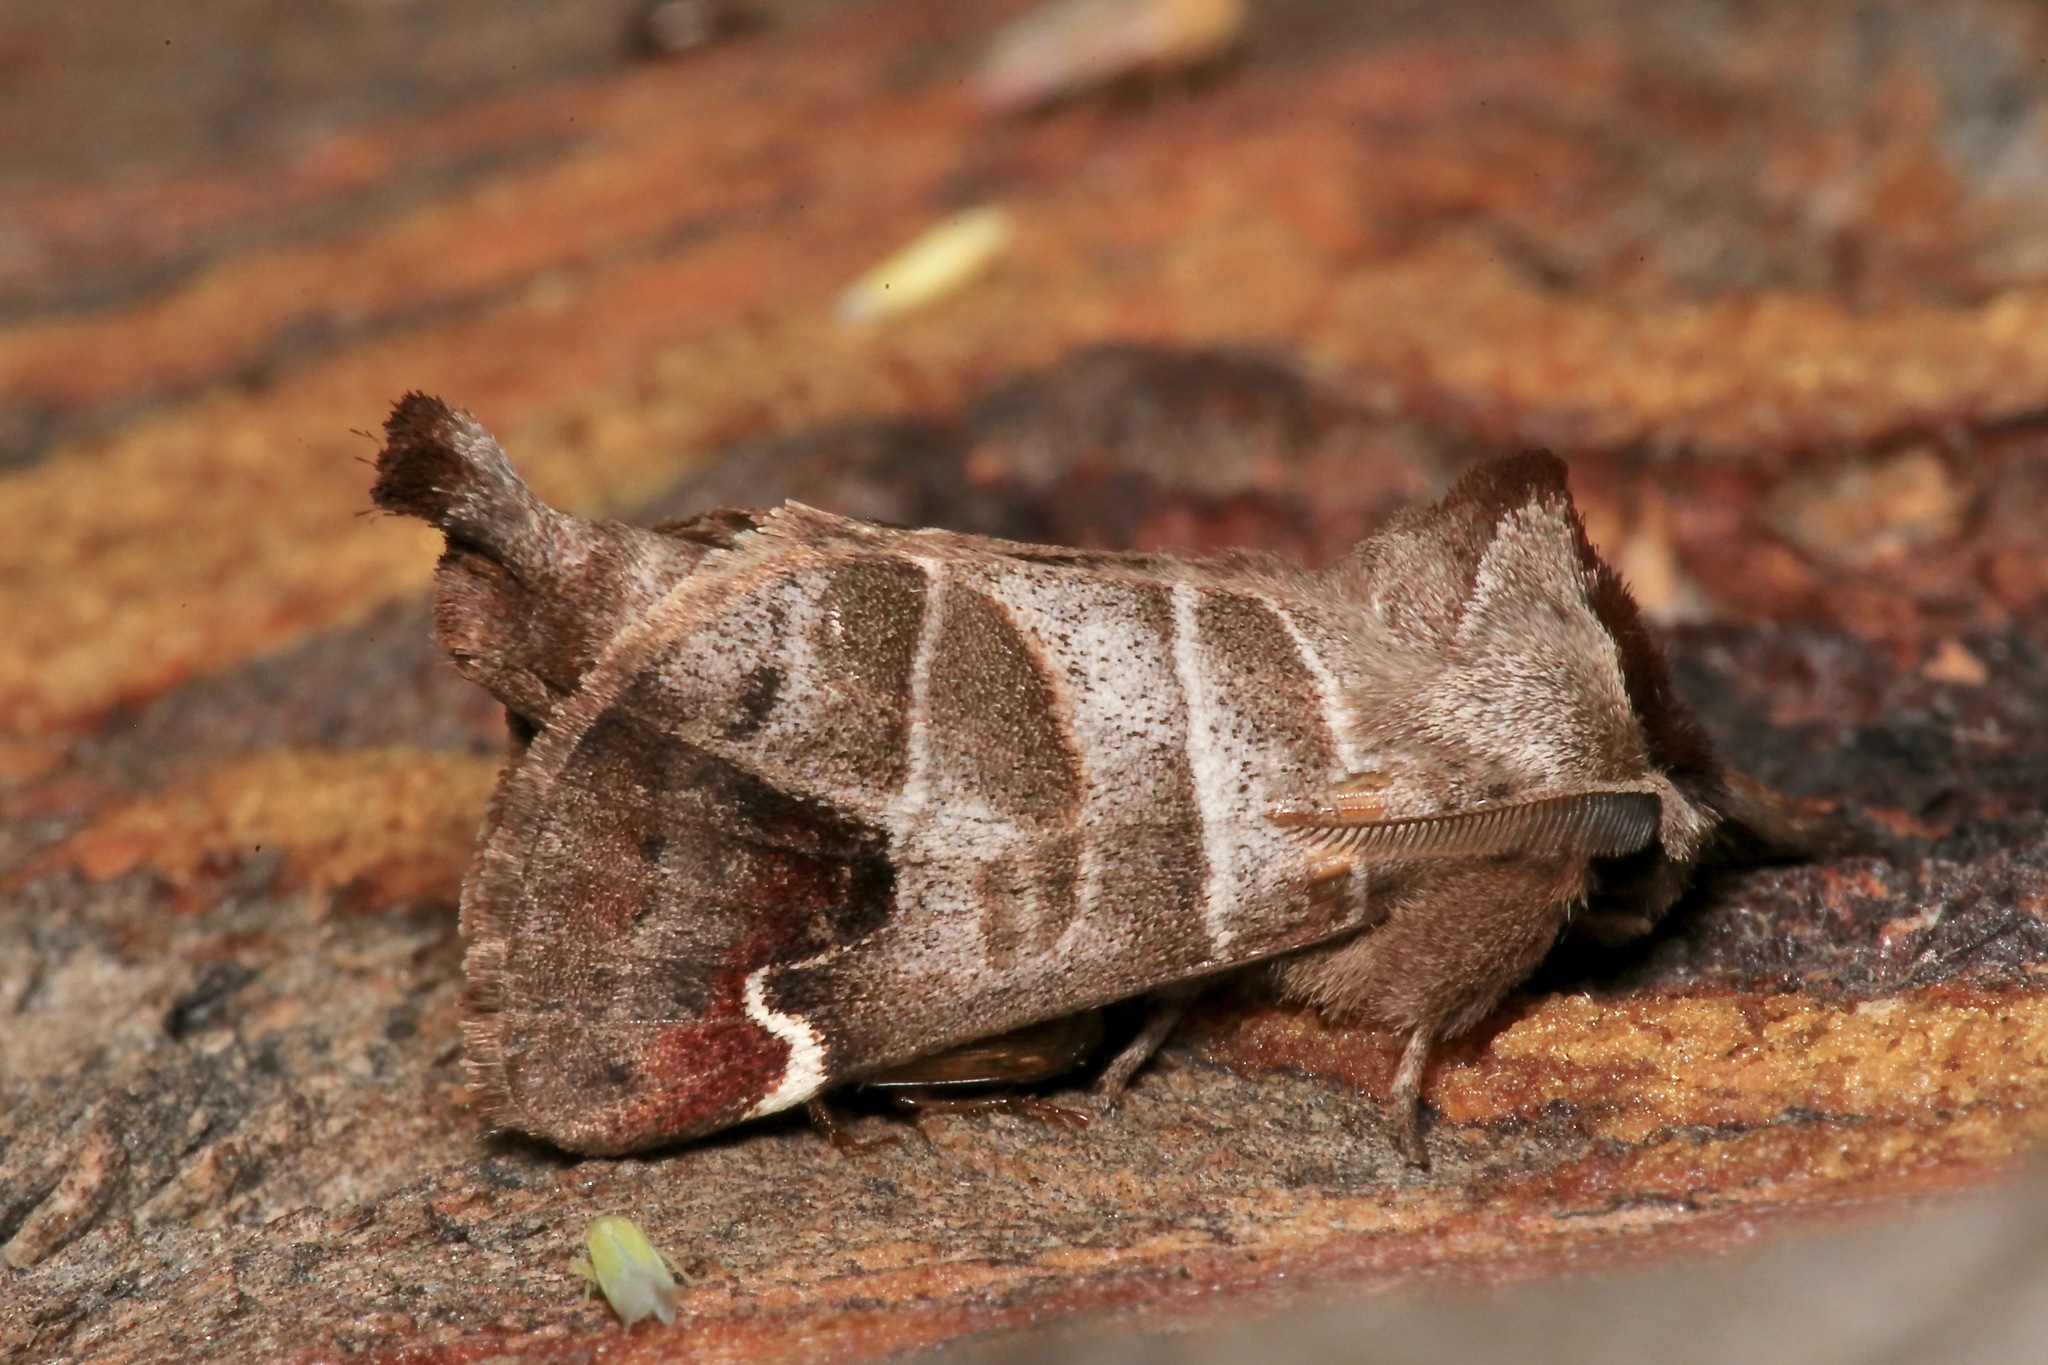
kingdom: Animalia
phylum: Arthropoda
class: Insecta
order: Lepidoptera
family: Notodontidae
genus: Clostera
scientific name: Clostera albosigma
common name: Sigmoid prominent
